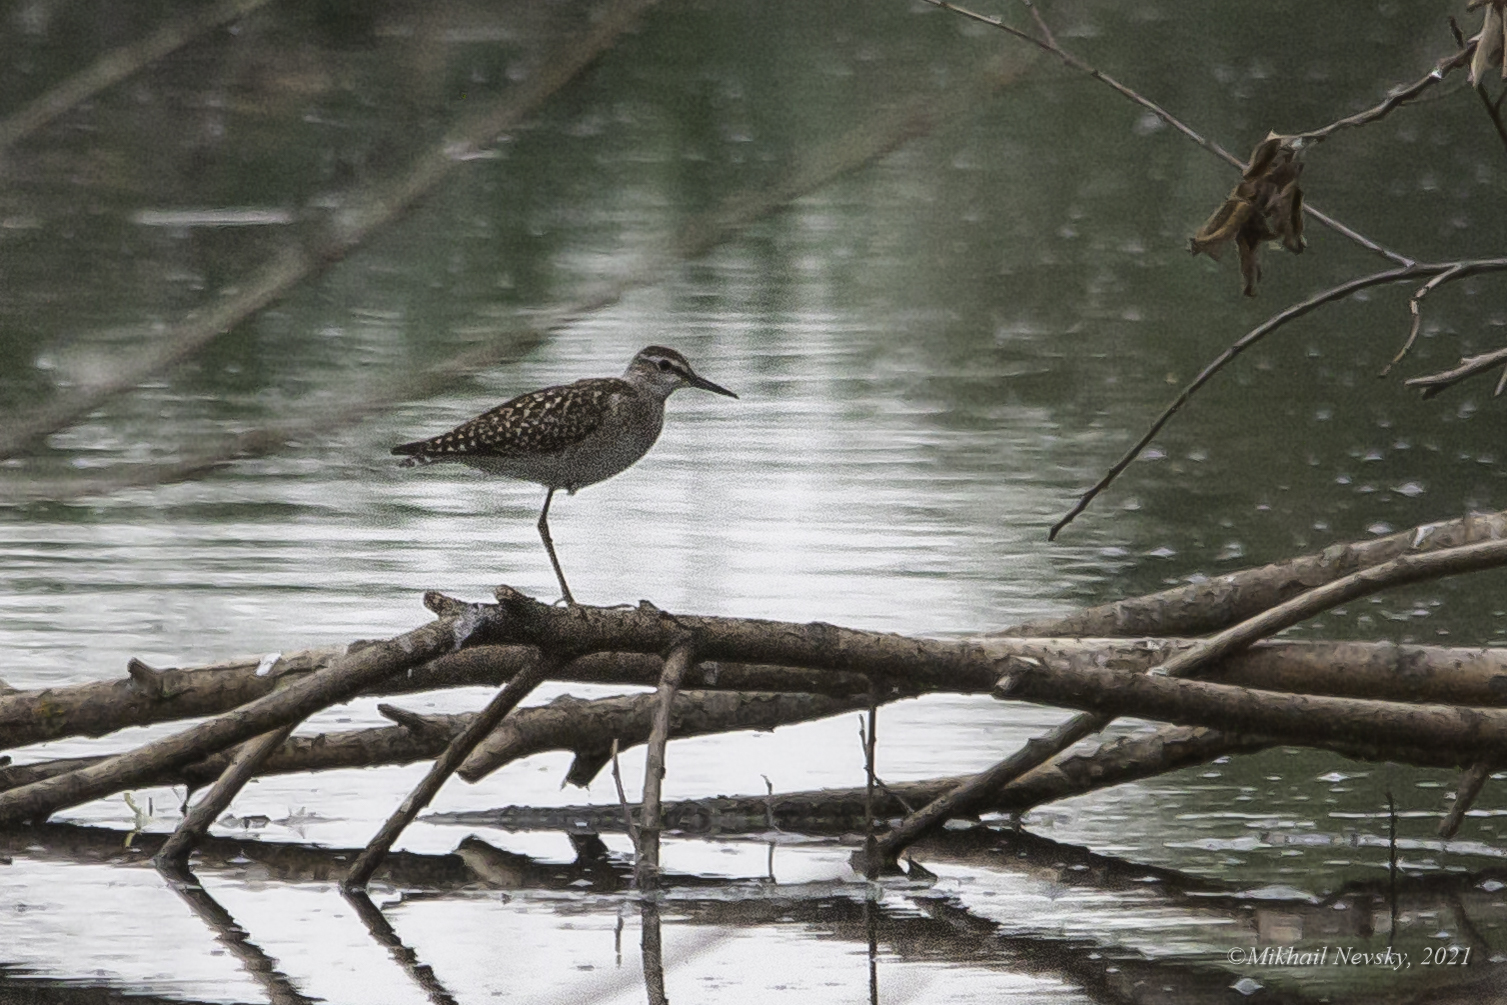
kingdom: Animalia
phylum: Chordata
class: Aves
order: Charadriiformes
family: Scolopacidae
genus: Tringa
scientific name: Tringa glareola
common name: Wood sandpiper
